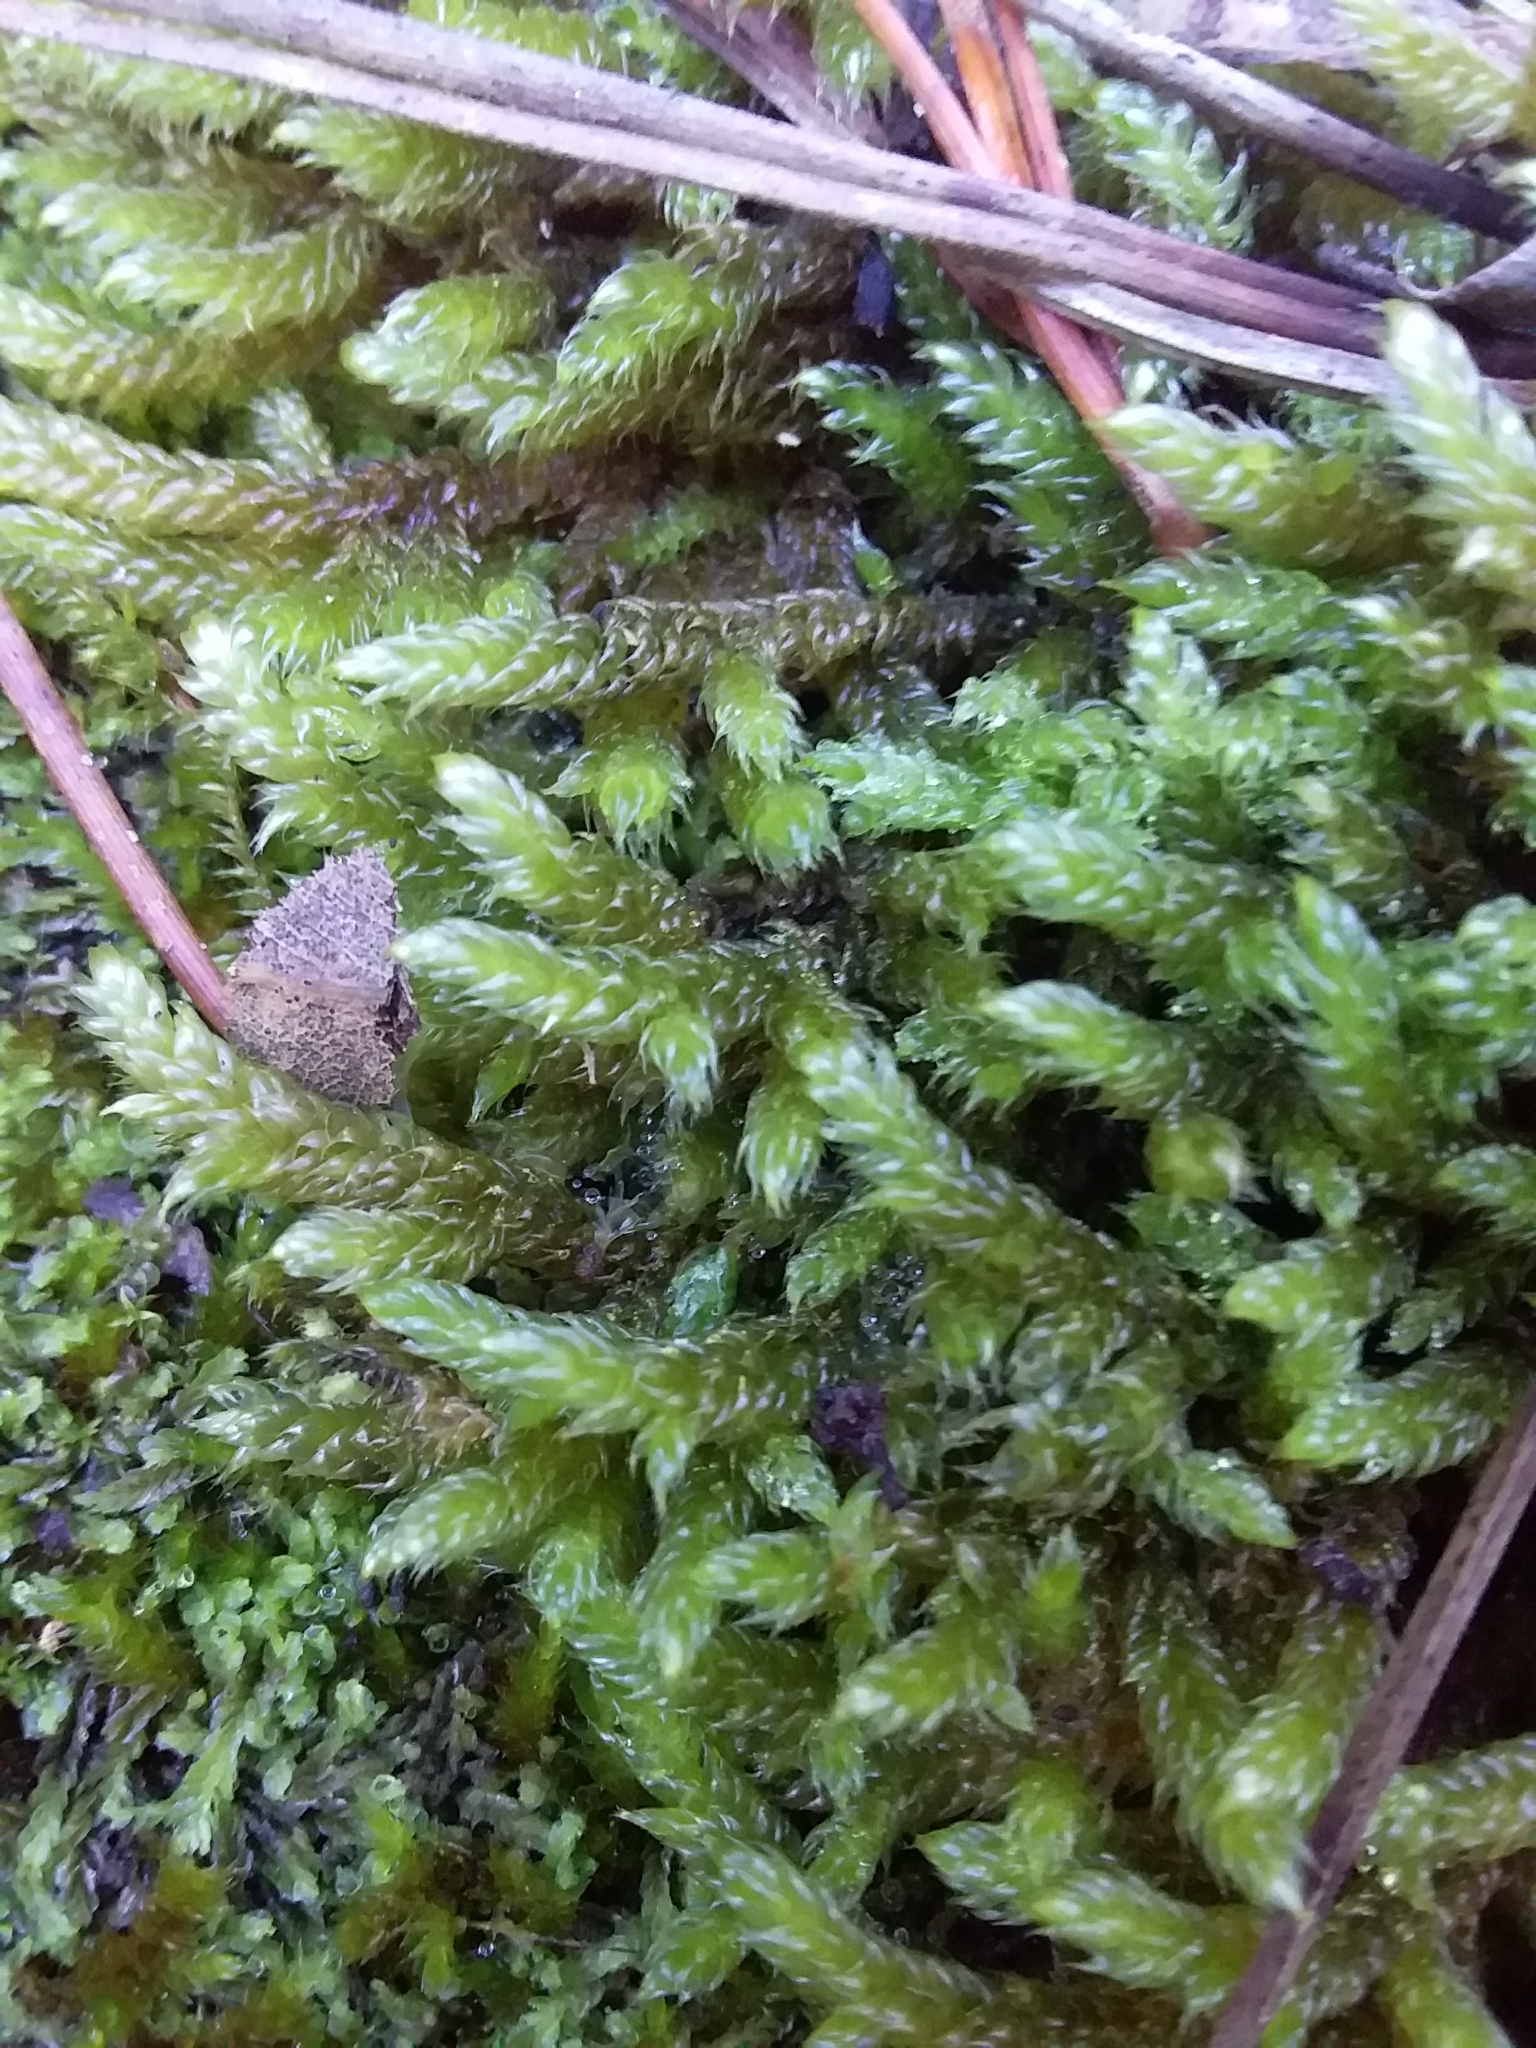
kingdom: Plantae
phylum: Bryophyta
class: Bryopsida
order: Hypnales
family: Hypnaceae
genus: Hypnum
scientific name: Hypnum cupressiforme
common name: Cypress-leaved plait-moss
